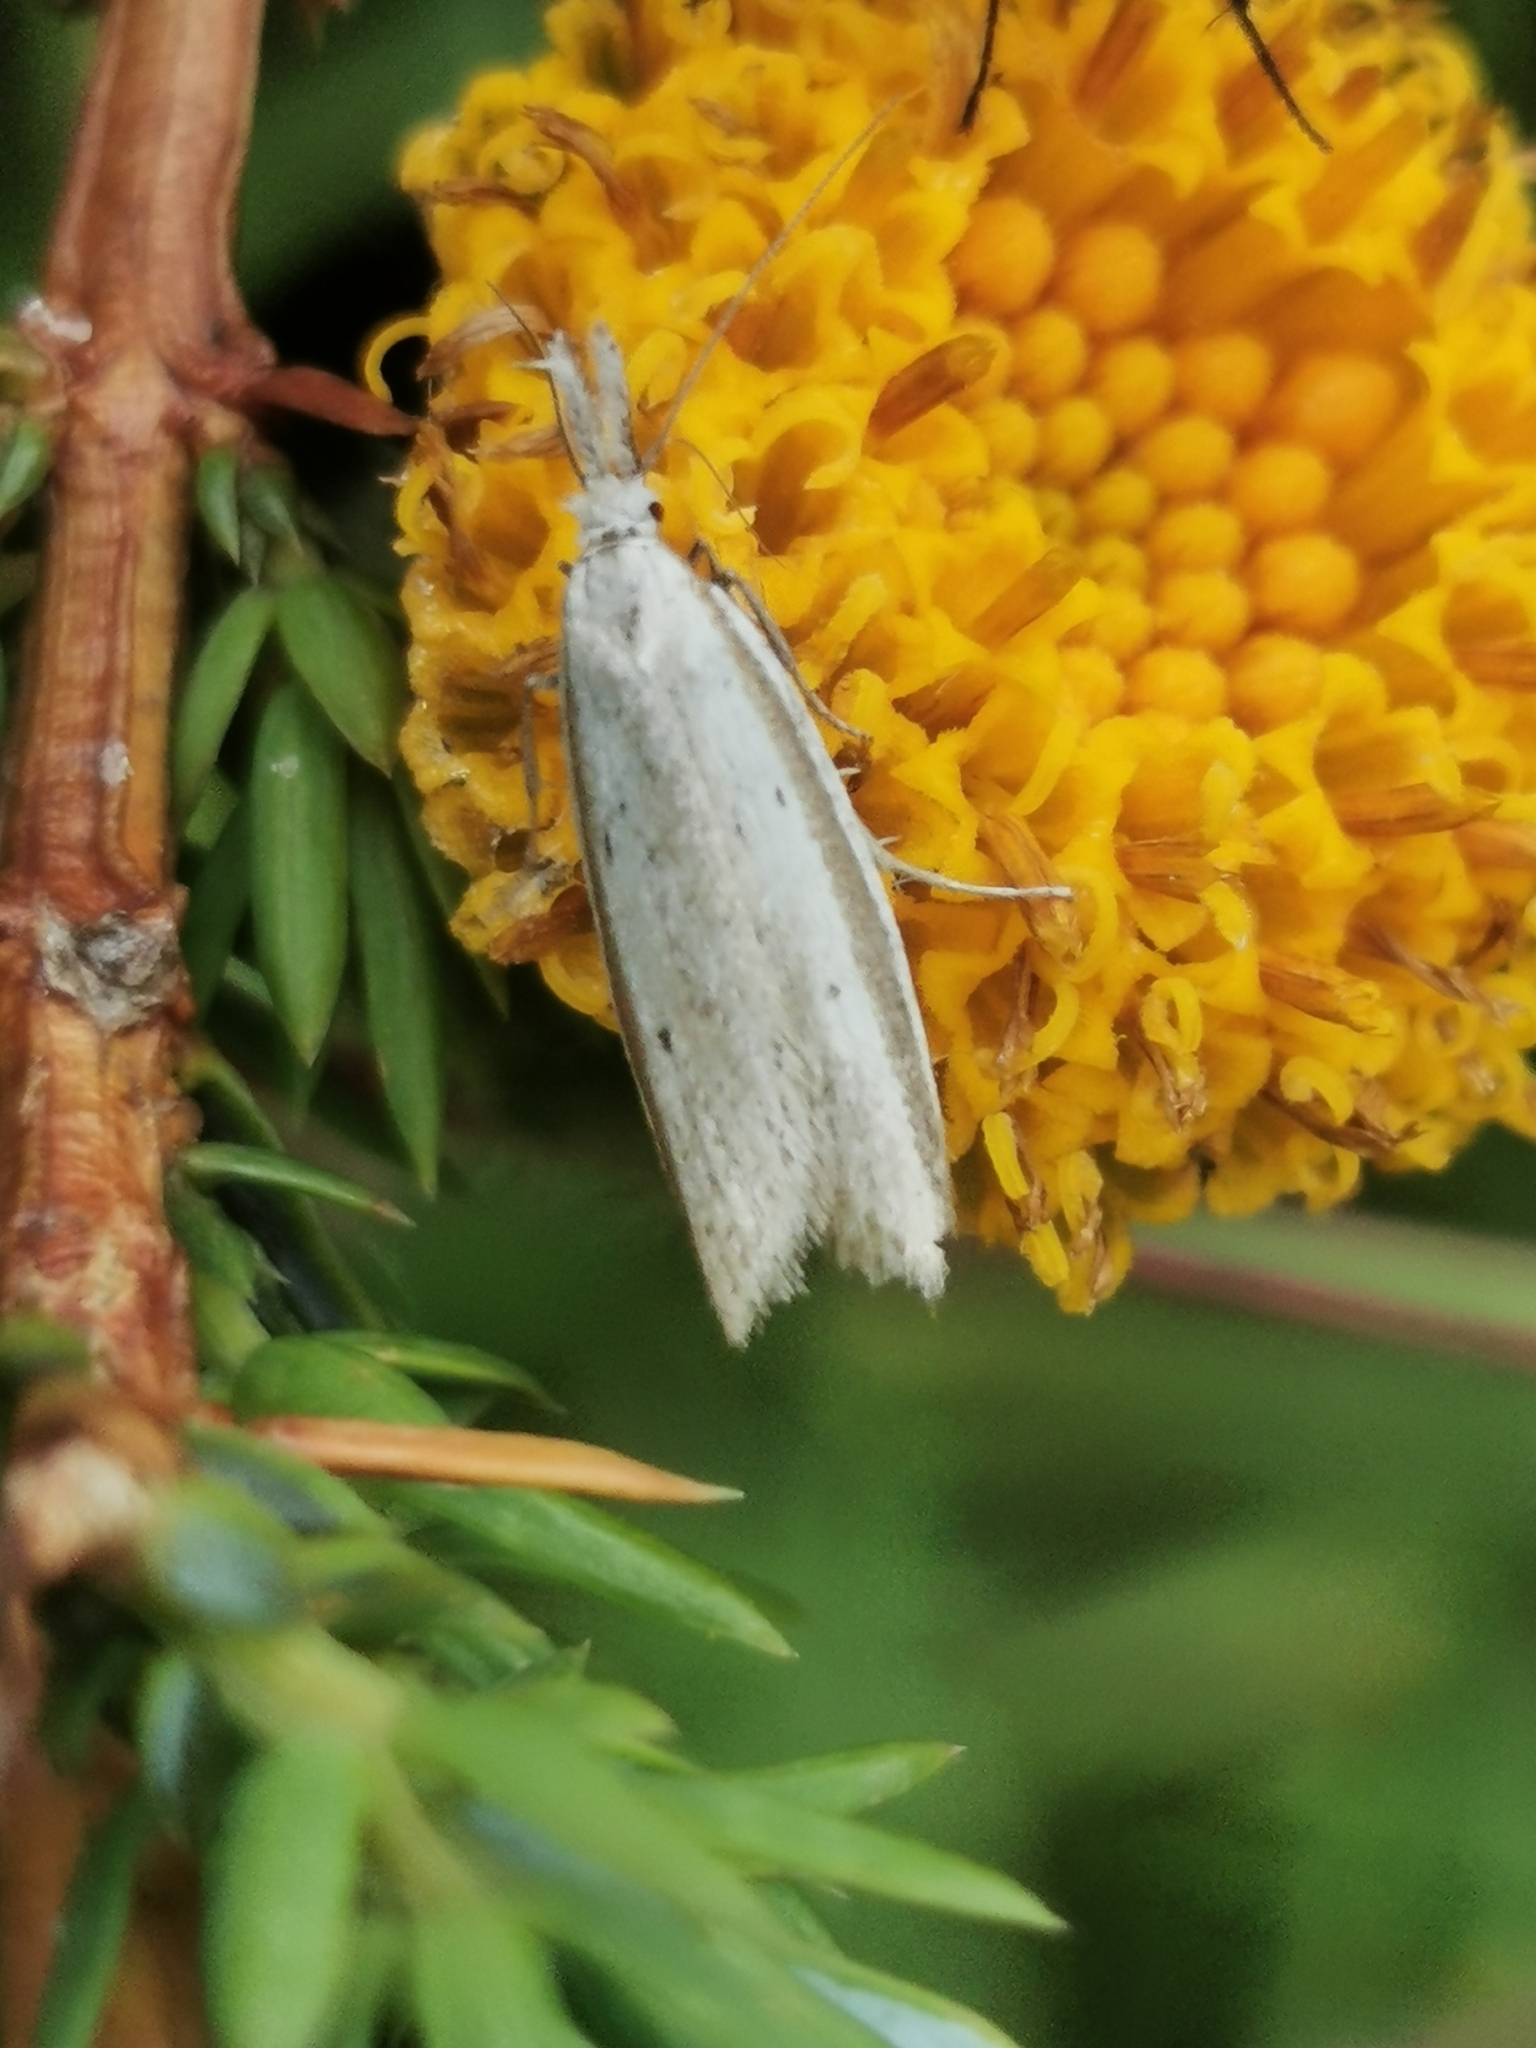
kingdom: Animalia
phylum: Arthropoda
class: Insecta
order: Lepidoptera
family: Oecophoridae
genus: Pleurota
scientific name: Pleurota bicostella
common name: Light streak
